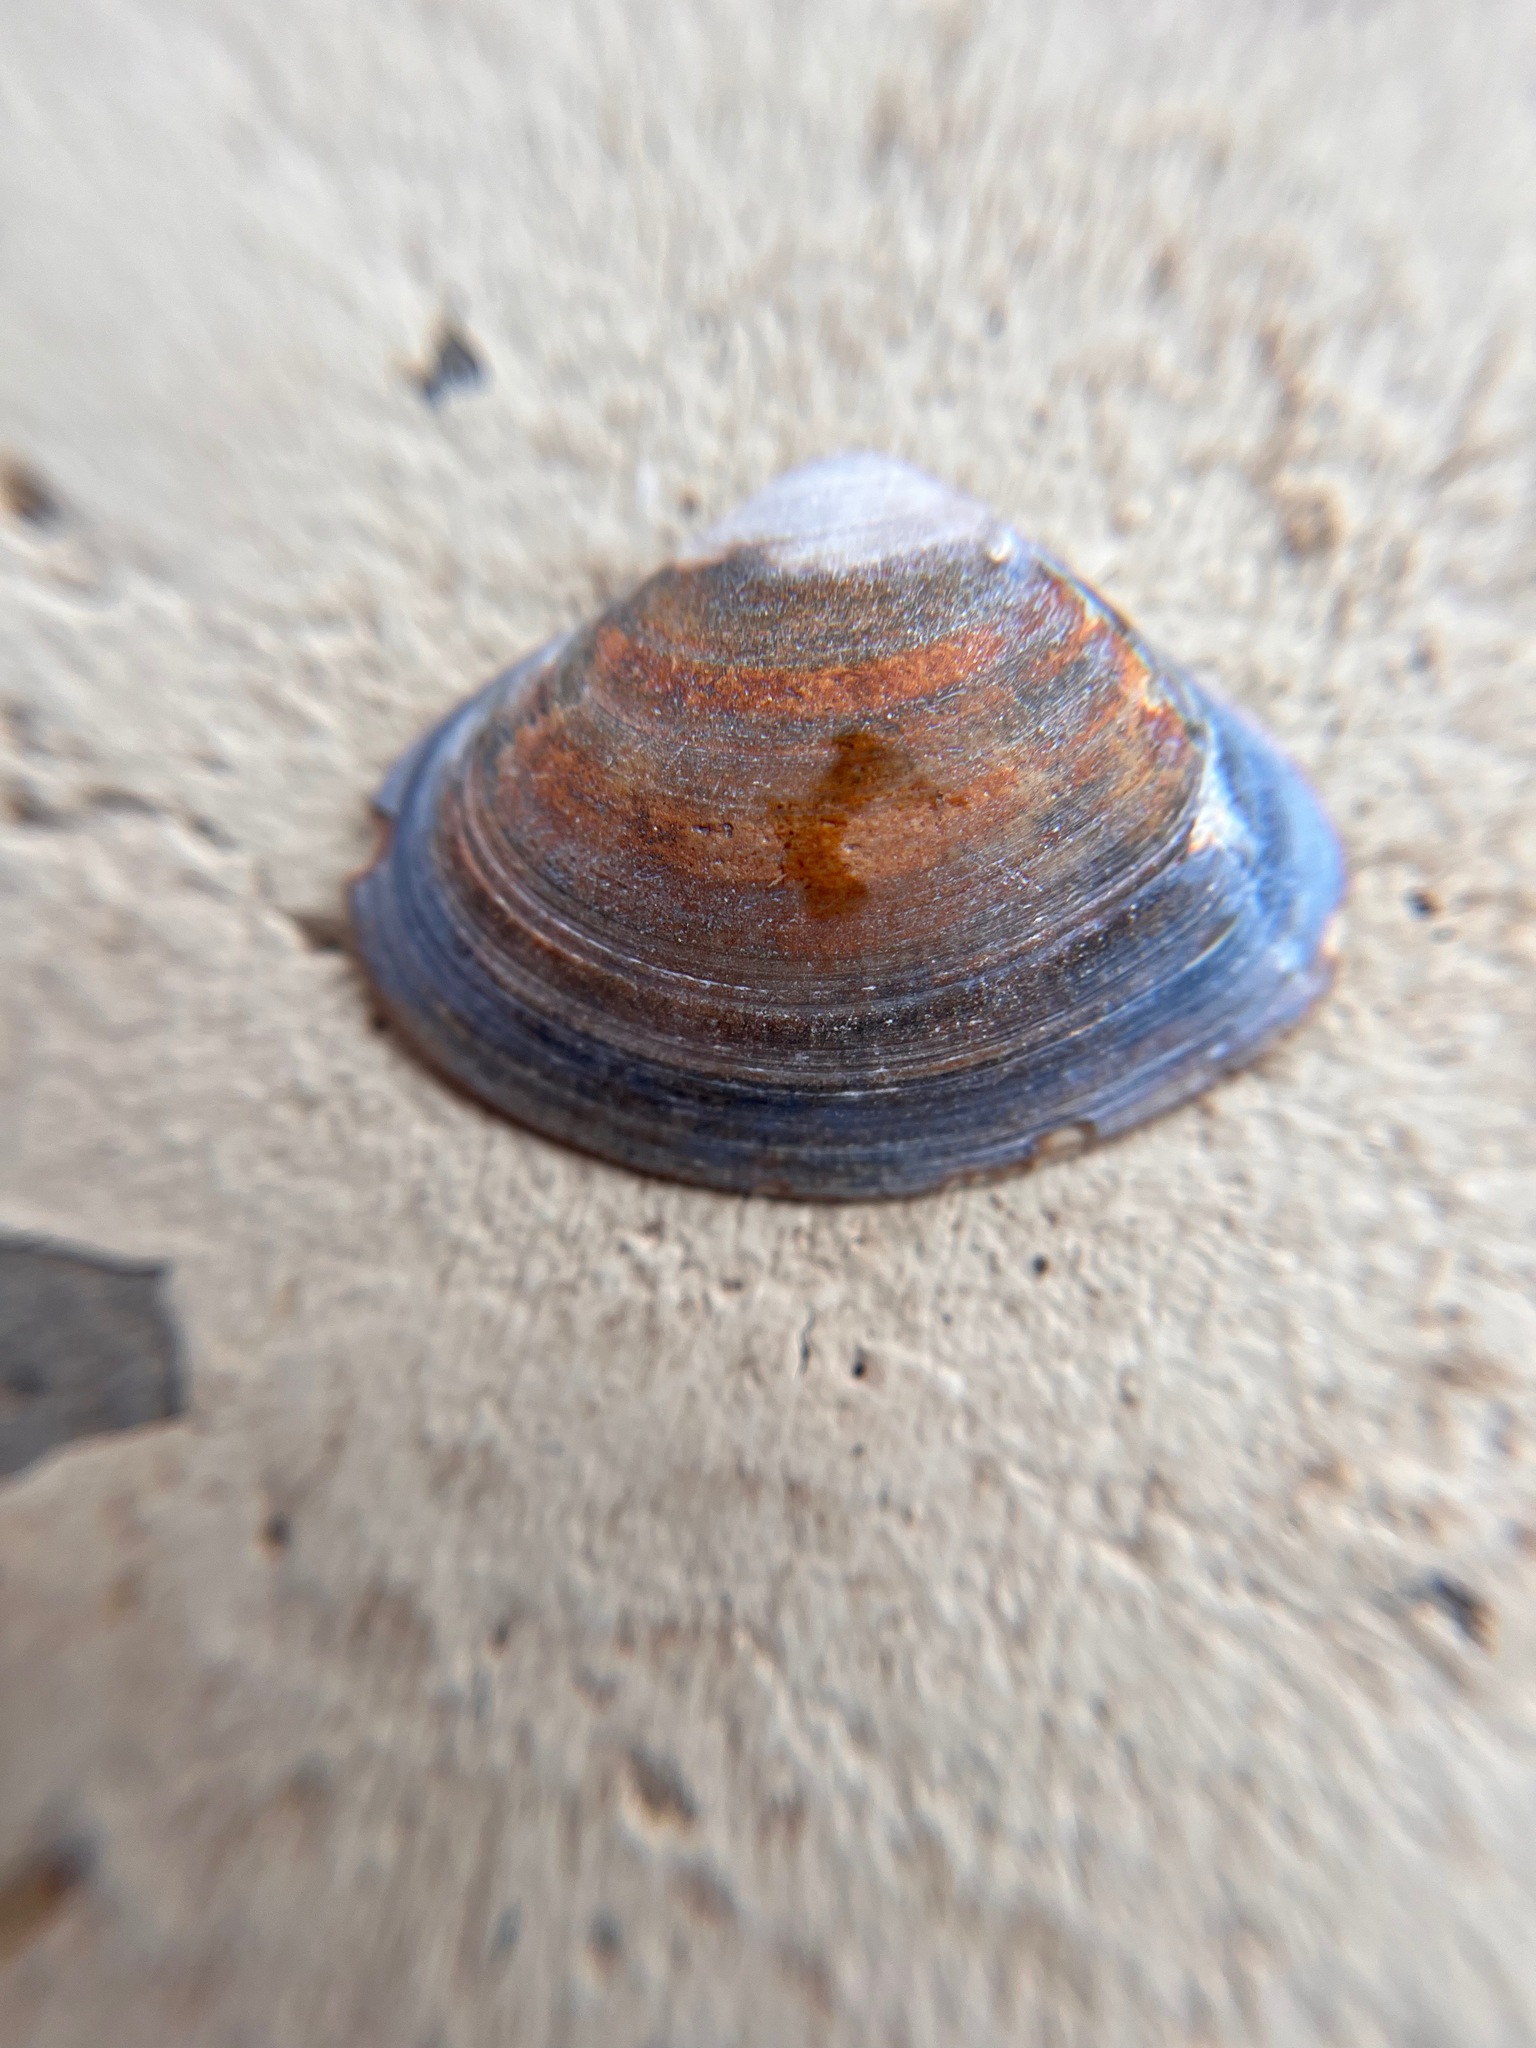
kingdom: Animalia
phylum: Mollusca
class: Bivalvia
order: Venerida
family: Veneridae
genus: Tivela
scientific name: Tivela stultorum
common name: Pismo clam
